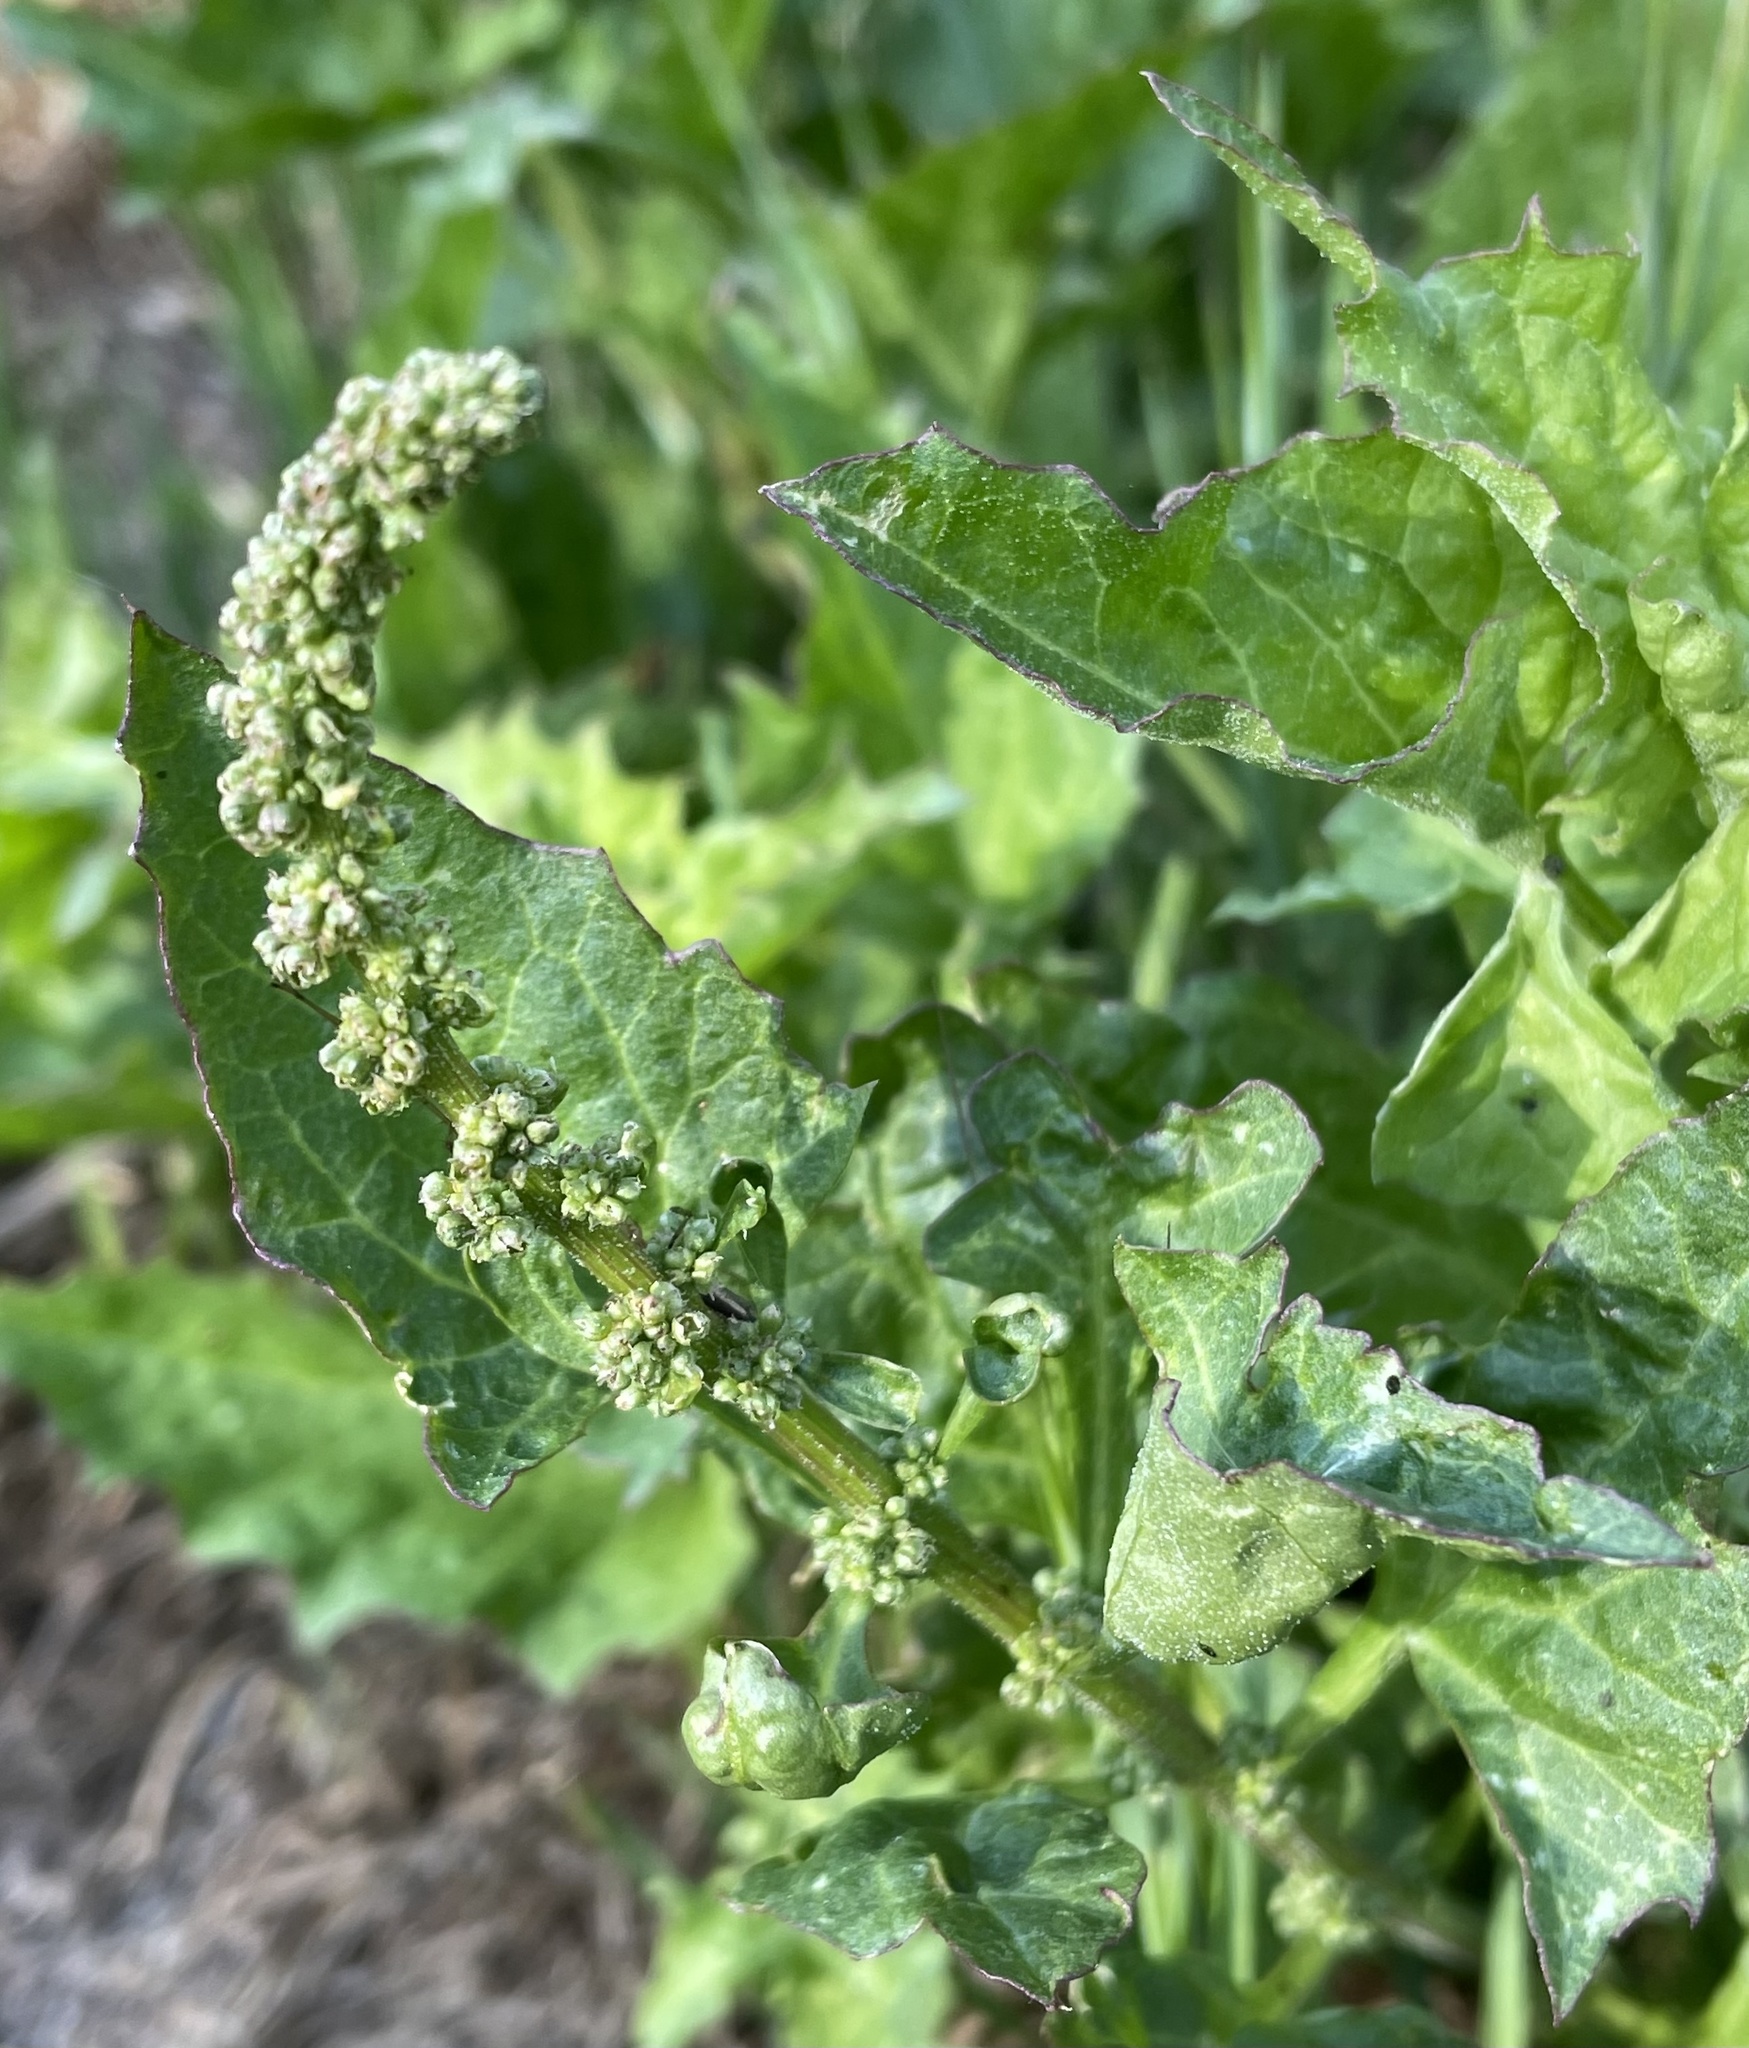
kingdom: Plantae
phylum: Tracheophyta
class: Magnoliopsida
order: Caryophyllales
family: Amaranthaceae
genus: Blitum
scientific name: Blitum californicum
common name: California goosefoot
